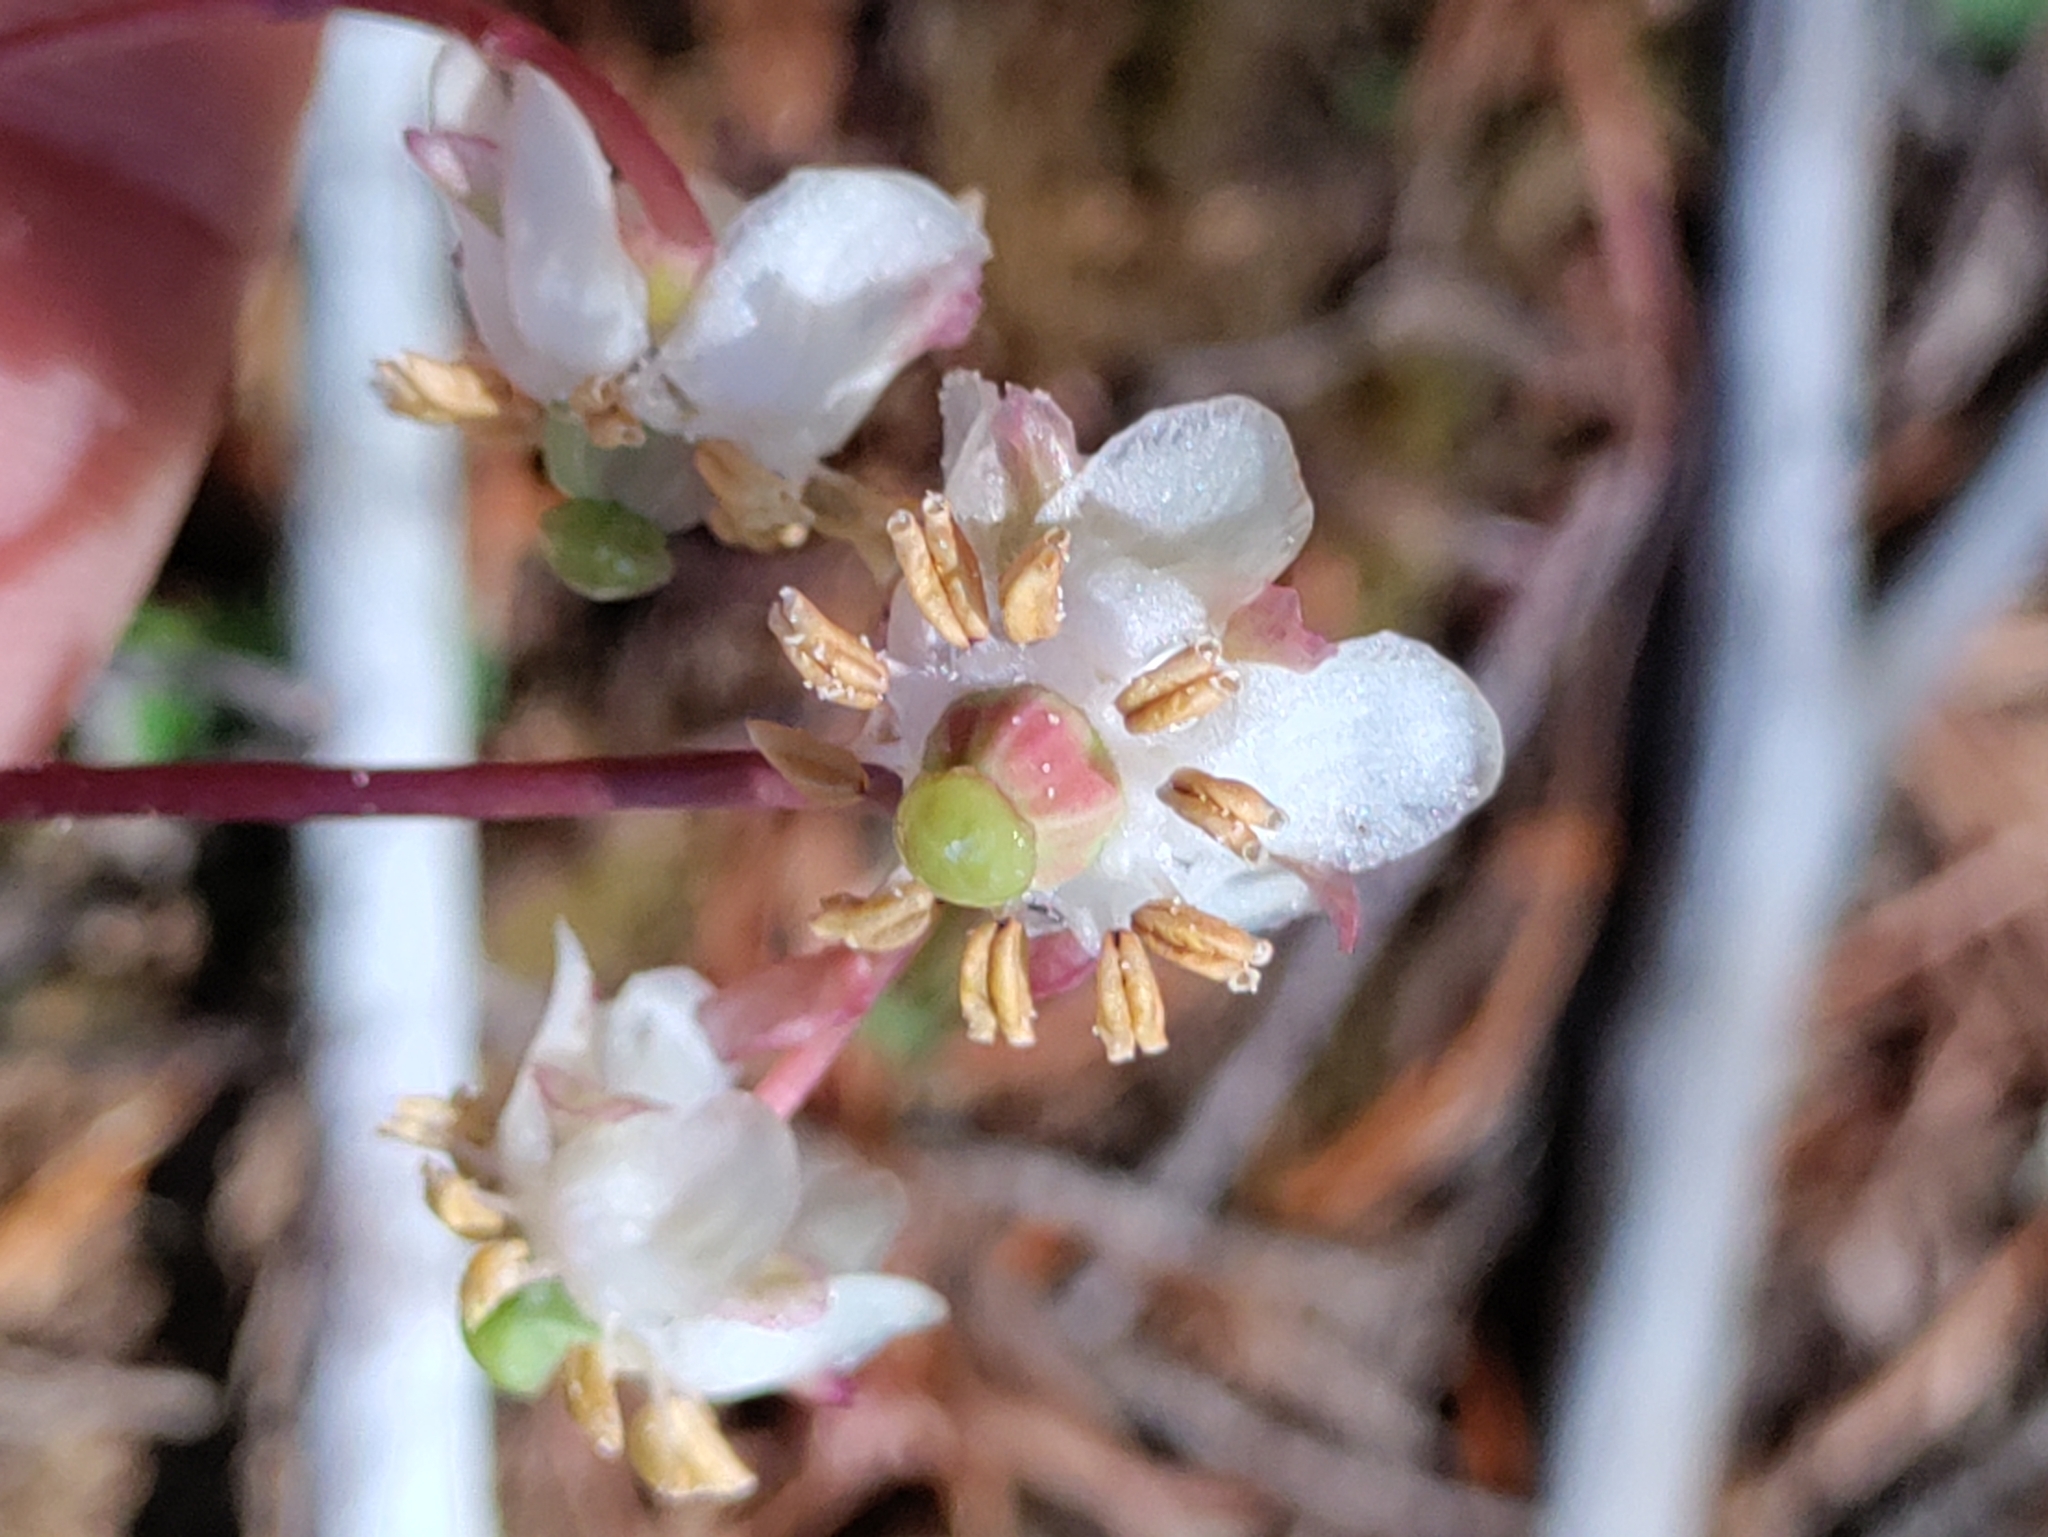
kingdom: Plantae
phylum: Tracheophyta
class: Magnoliopsida
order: Ericales
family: Ericaceae
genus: Chimaphila
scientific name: Chimaphila menziesii
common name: Menzies' pipsissewa
